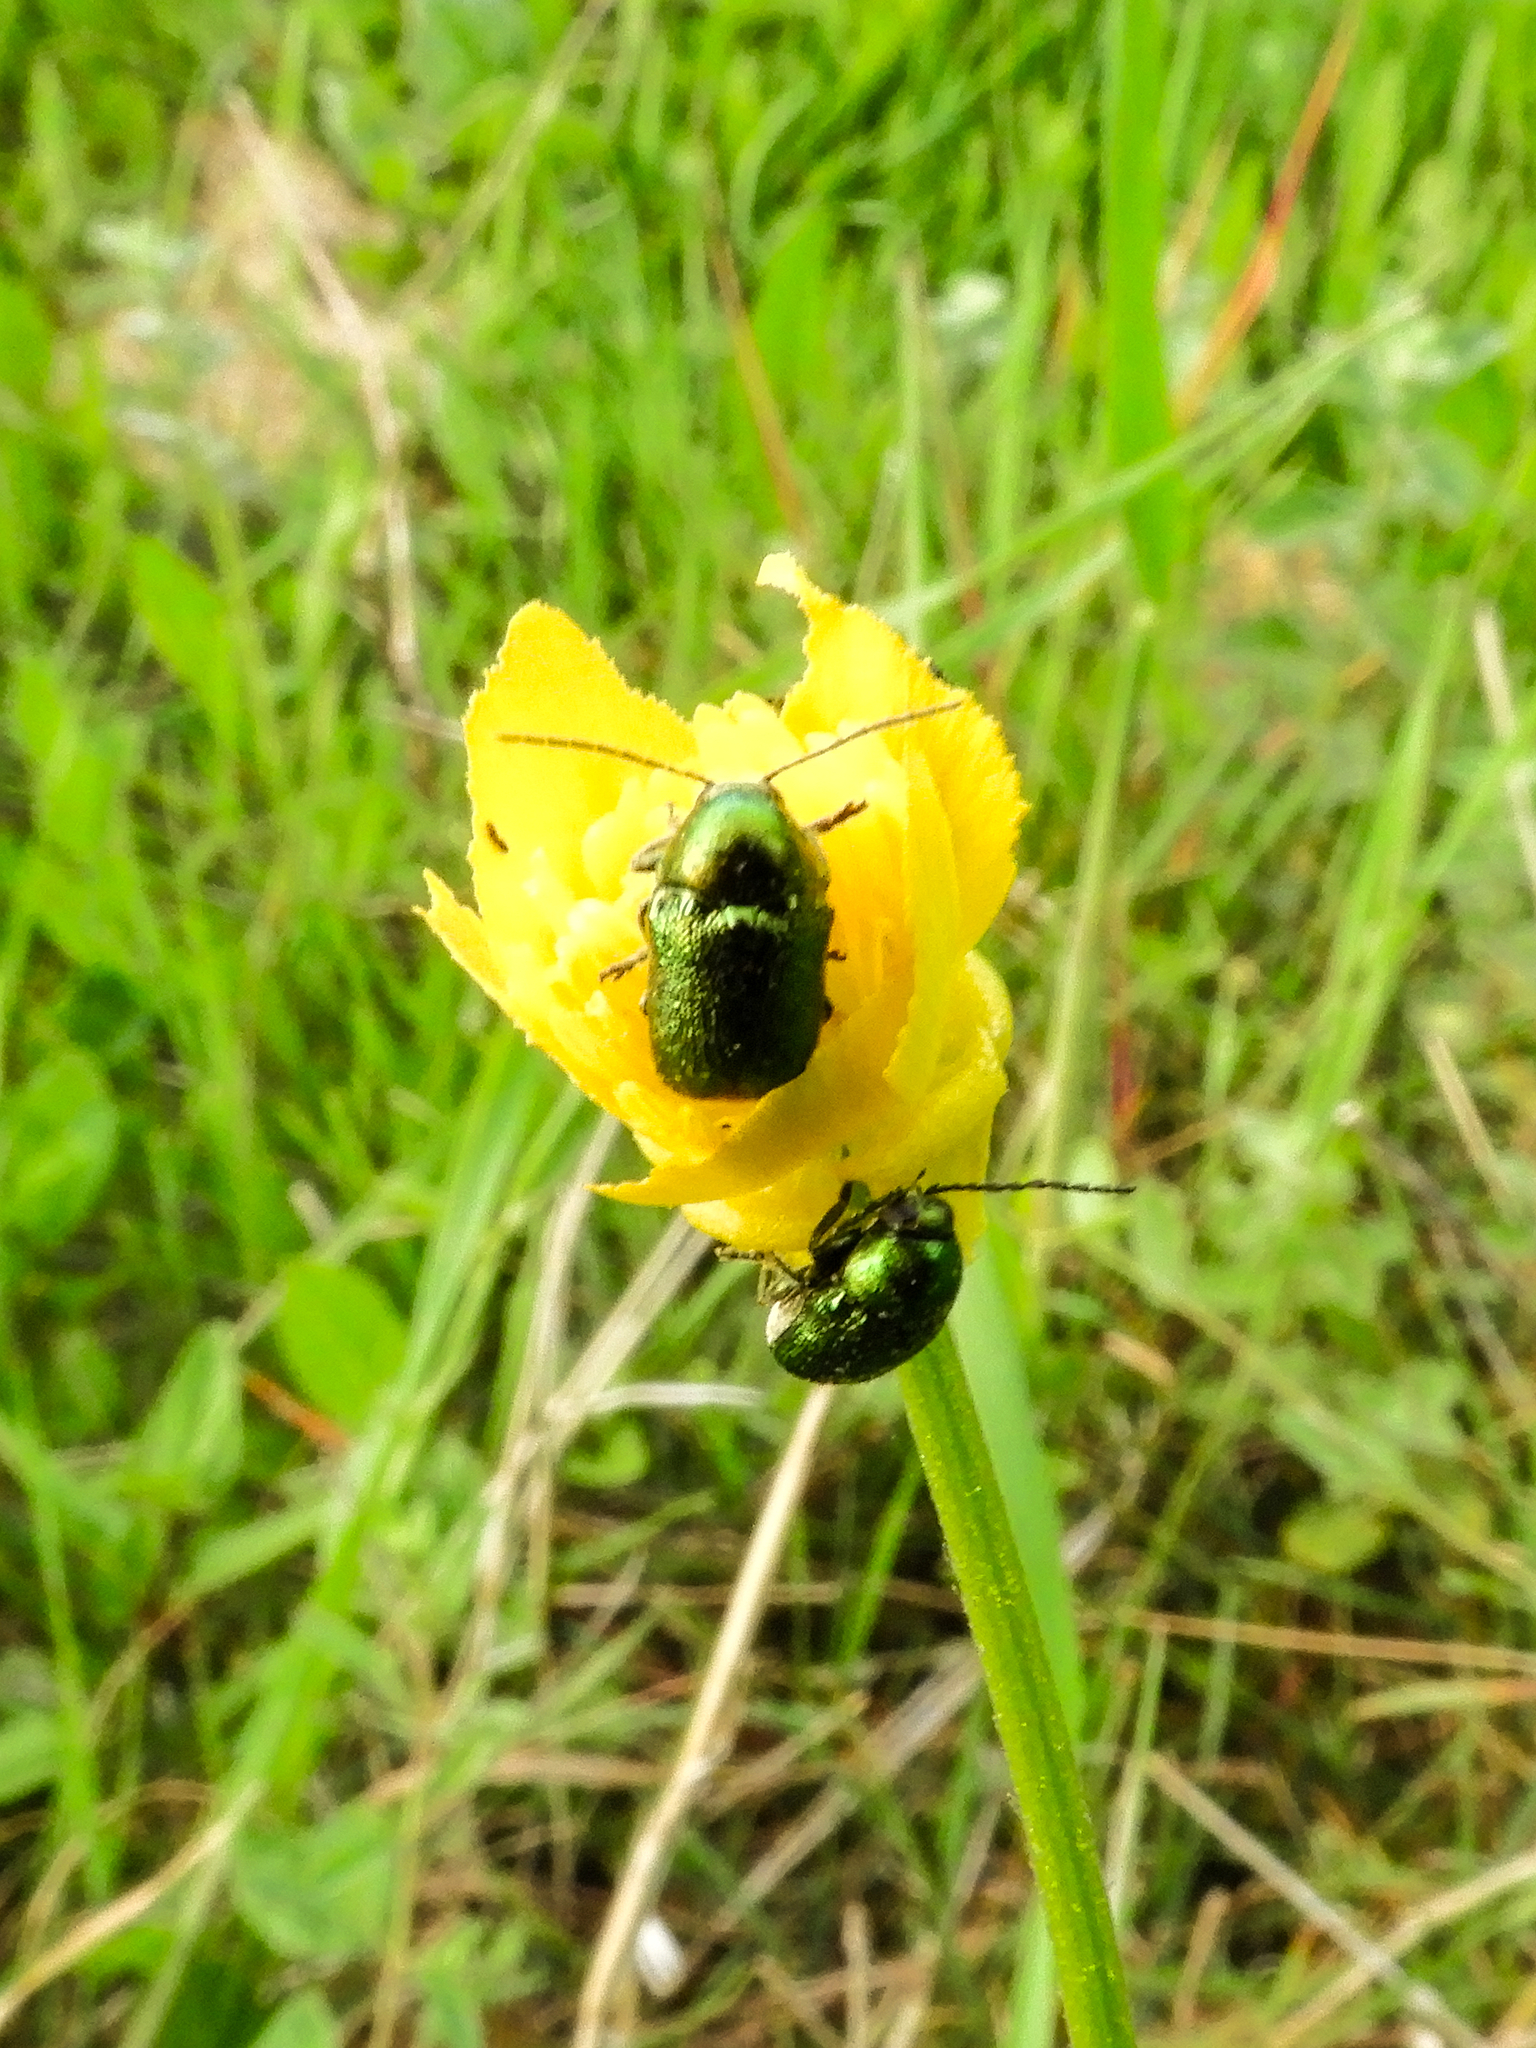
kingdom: Animalia
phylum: Arthropoda
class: Insecta
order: Coleoptera
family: Chrysomelidae
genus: Cryptocephalus
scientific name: Cryptocephalus
